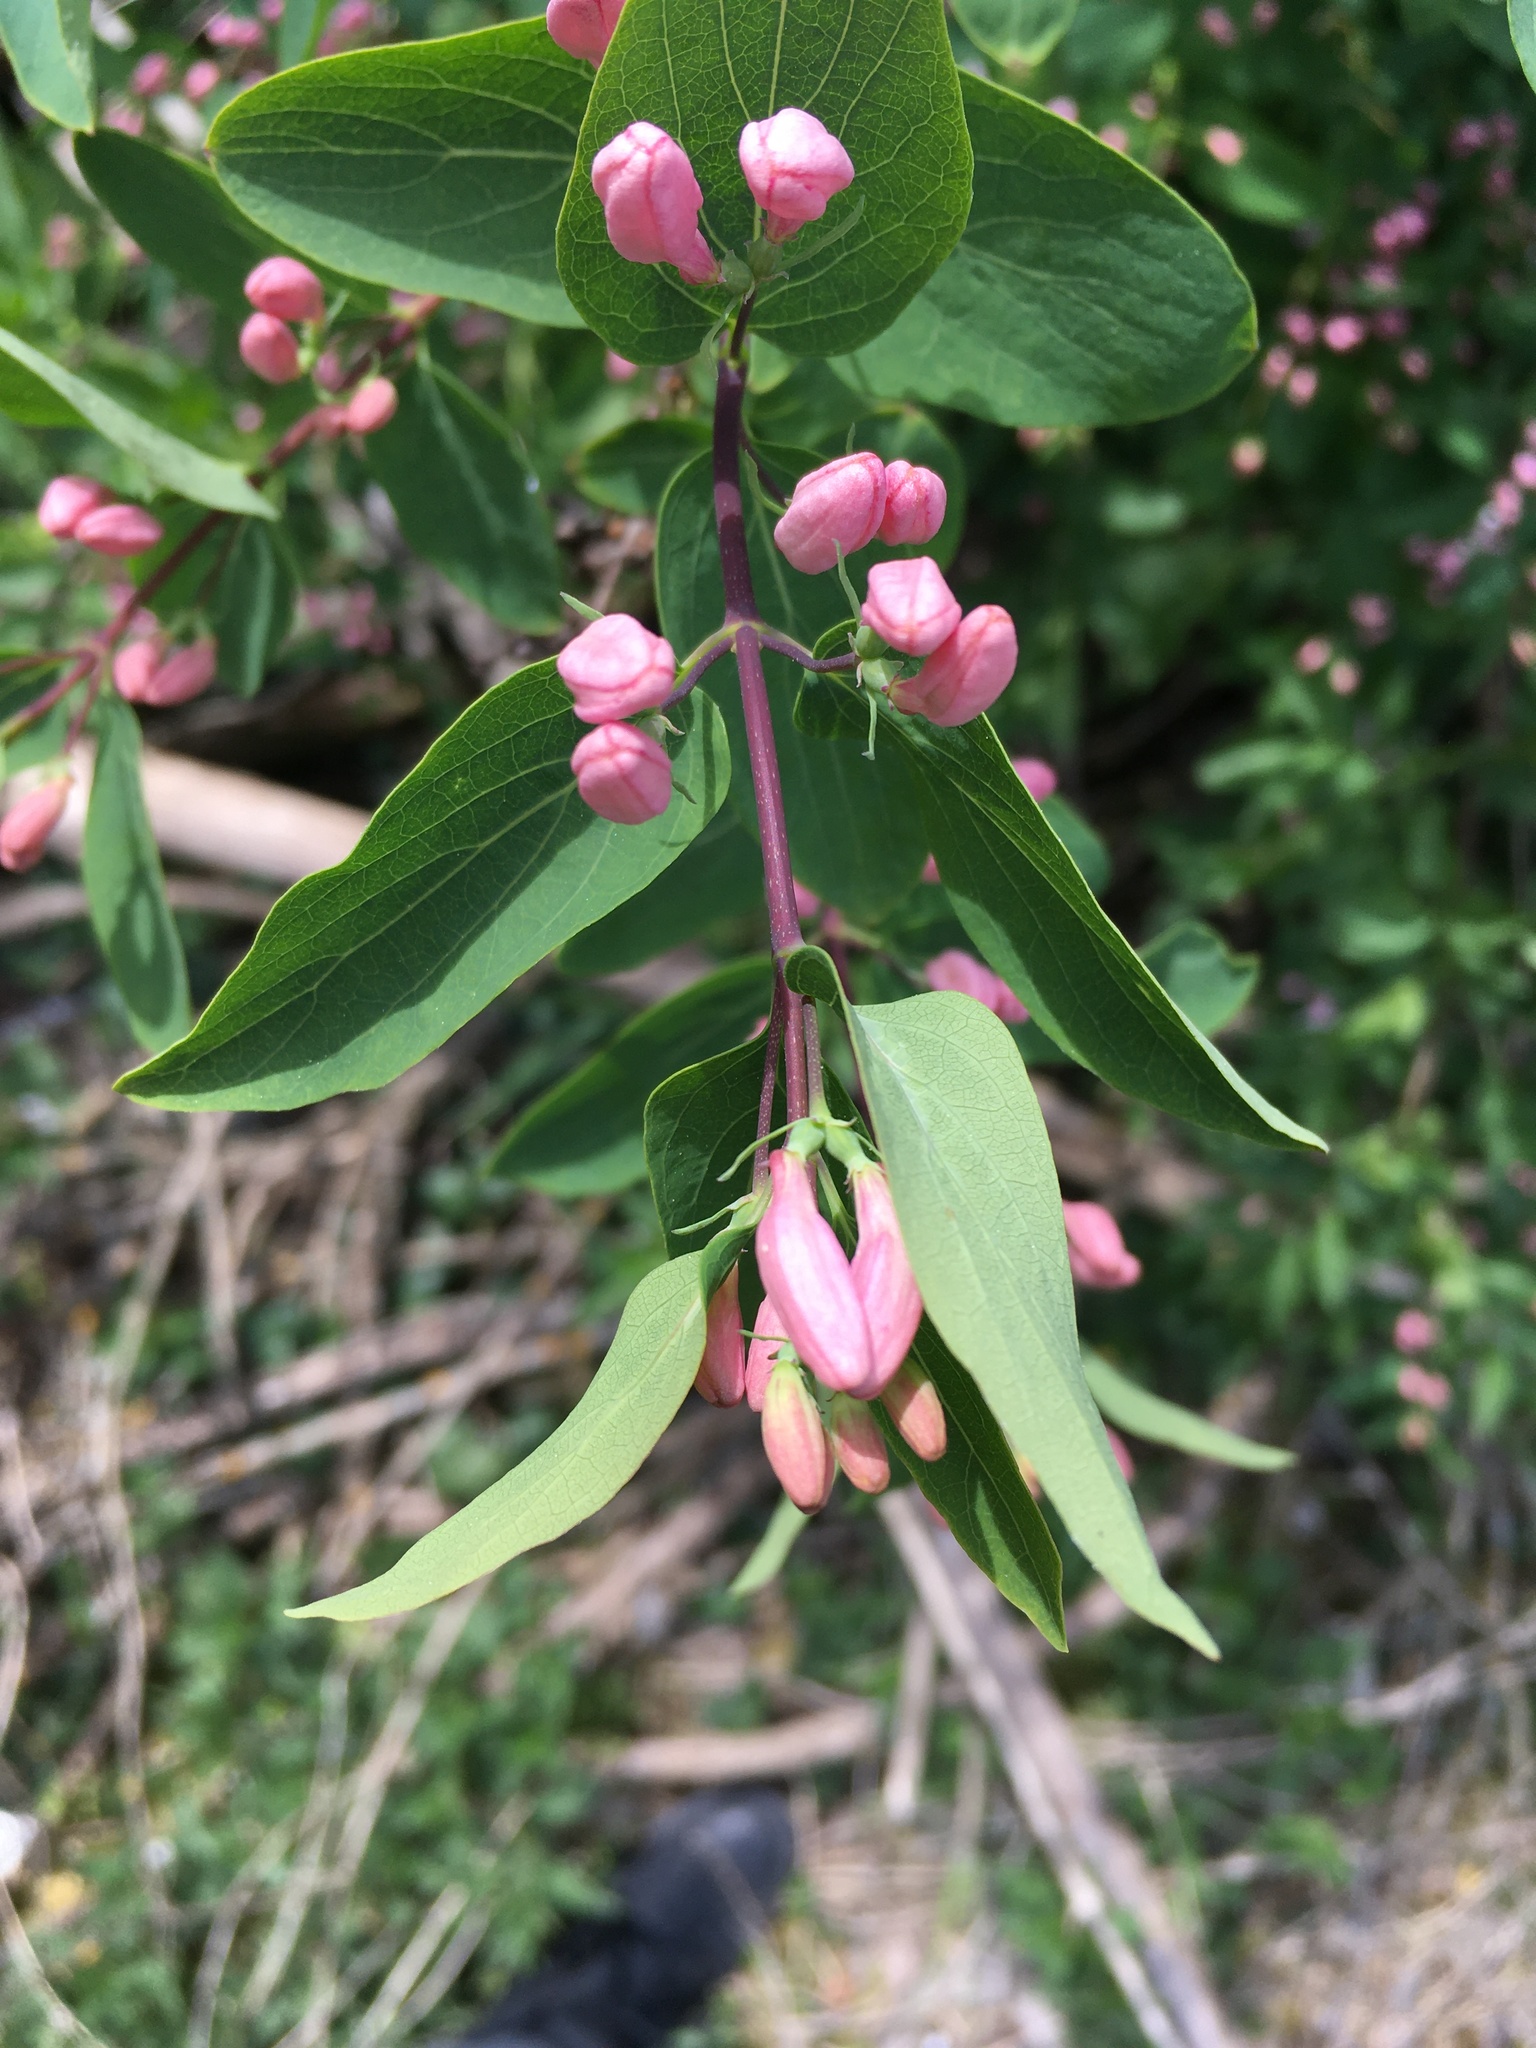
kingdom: Plantae
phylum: Tracheophyta
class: Magnoliopsida
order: Dipsacales
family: Caprifoliaceae
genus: Lonicera
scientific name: Lonicera tatarica
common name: Tatarian honeysuckle
